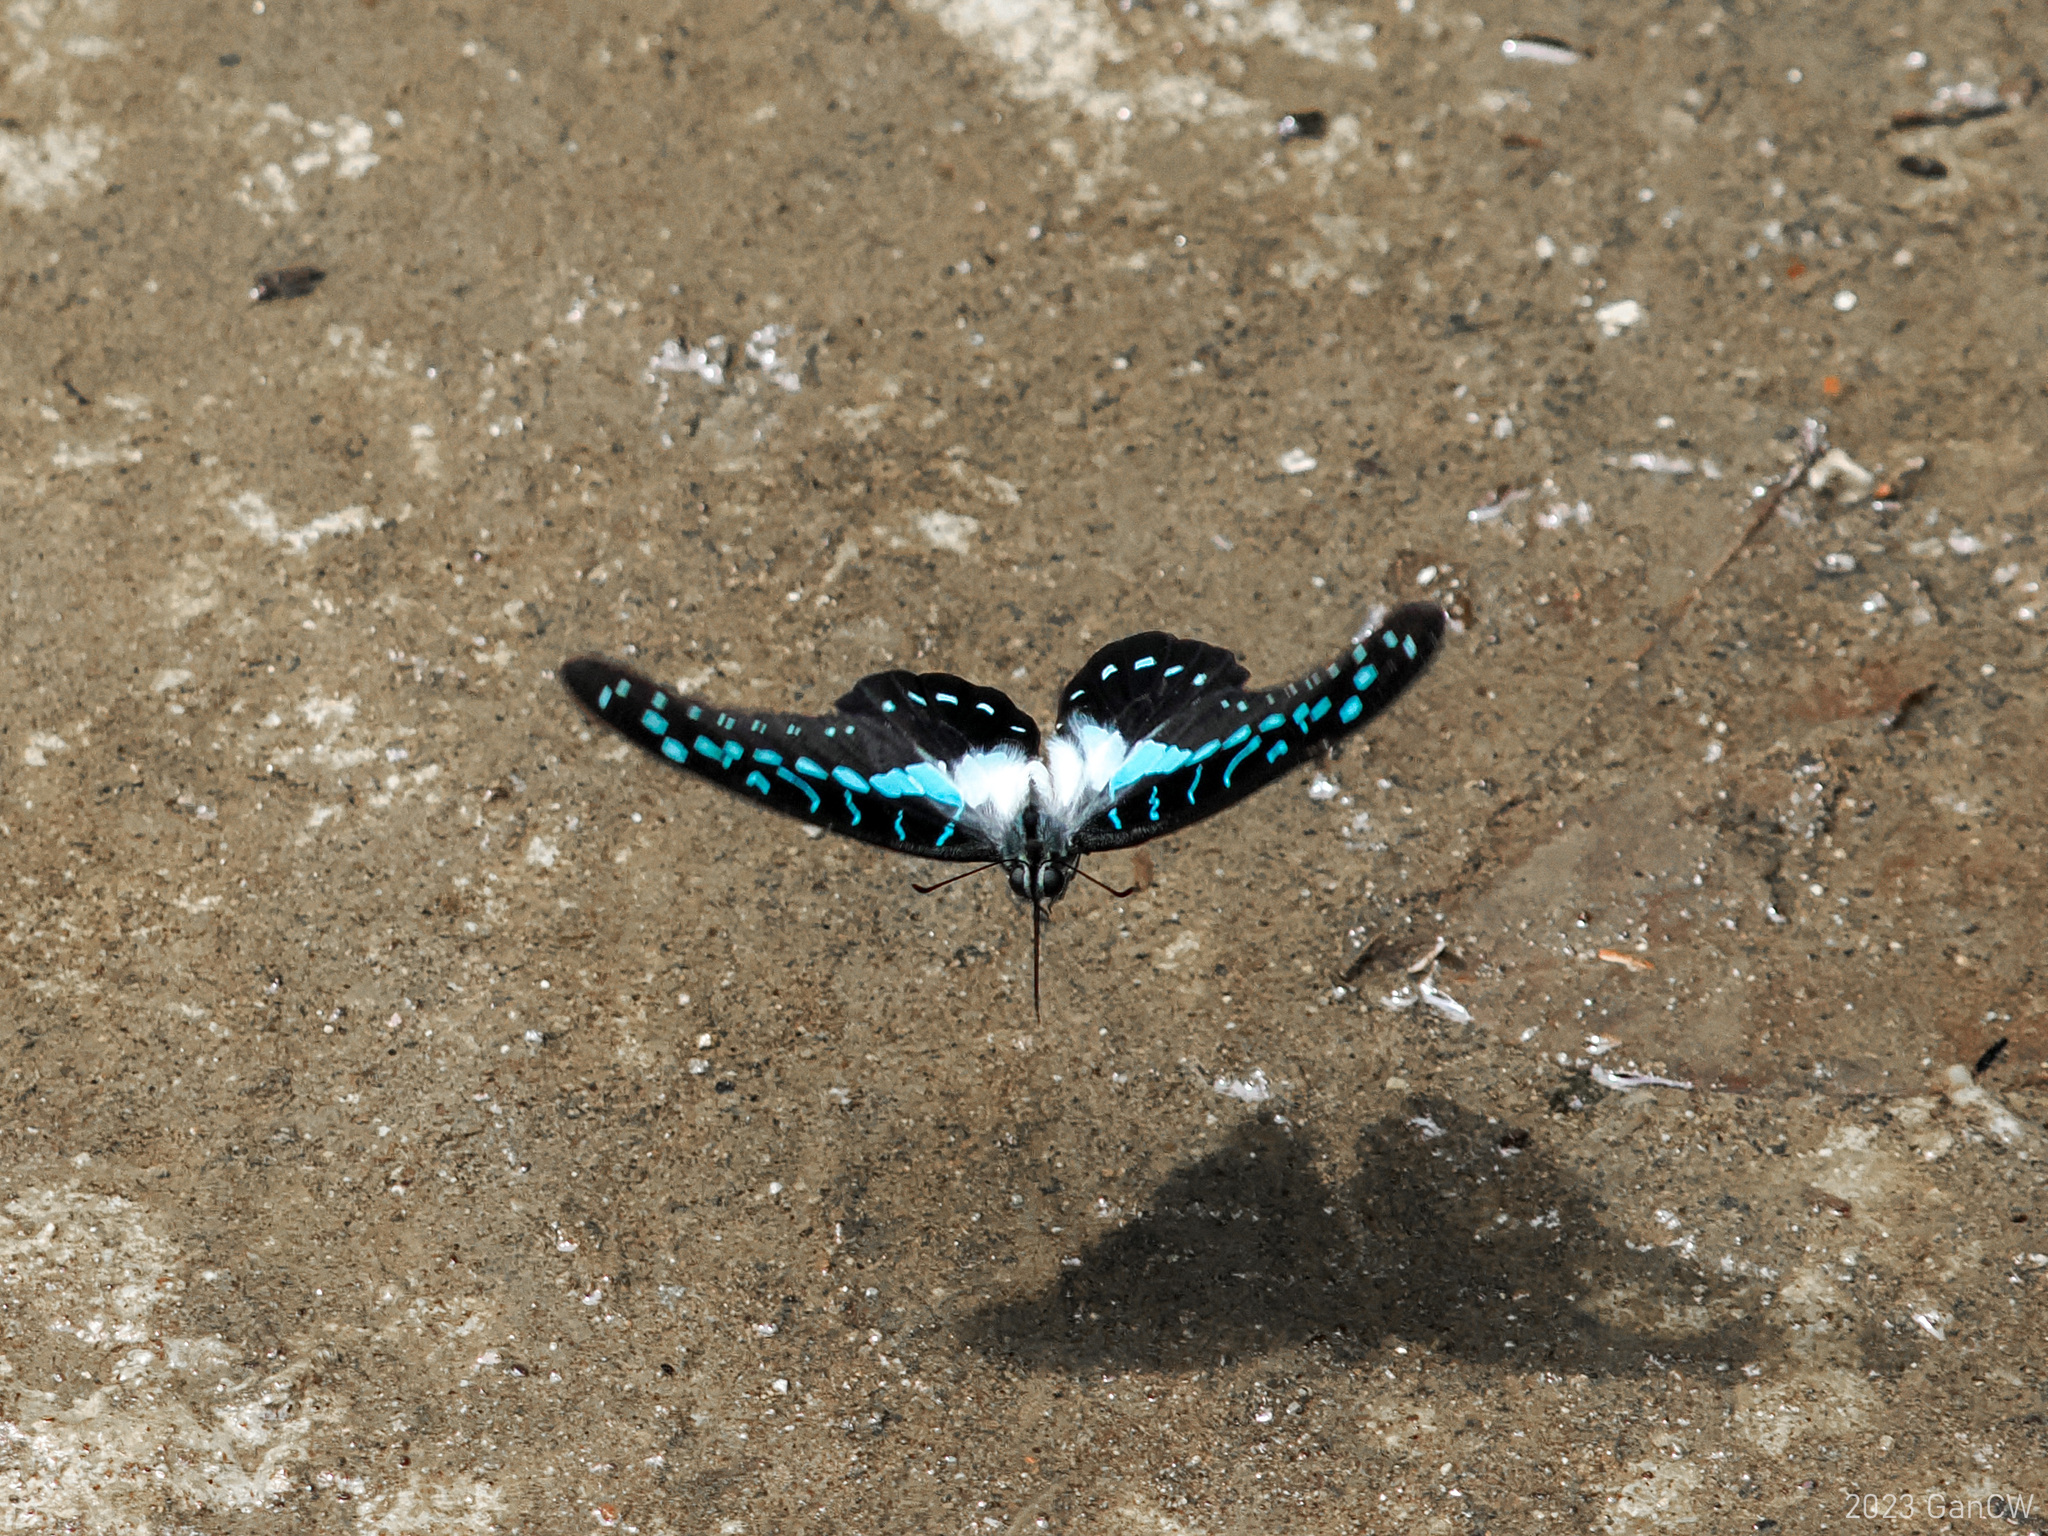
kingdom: Animalia
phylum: Arthropoda
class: Insecta
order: Lepidoptera
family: Papilionidae
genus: Graphium
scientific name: Graphium meyeri
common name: Meyer's triangle
